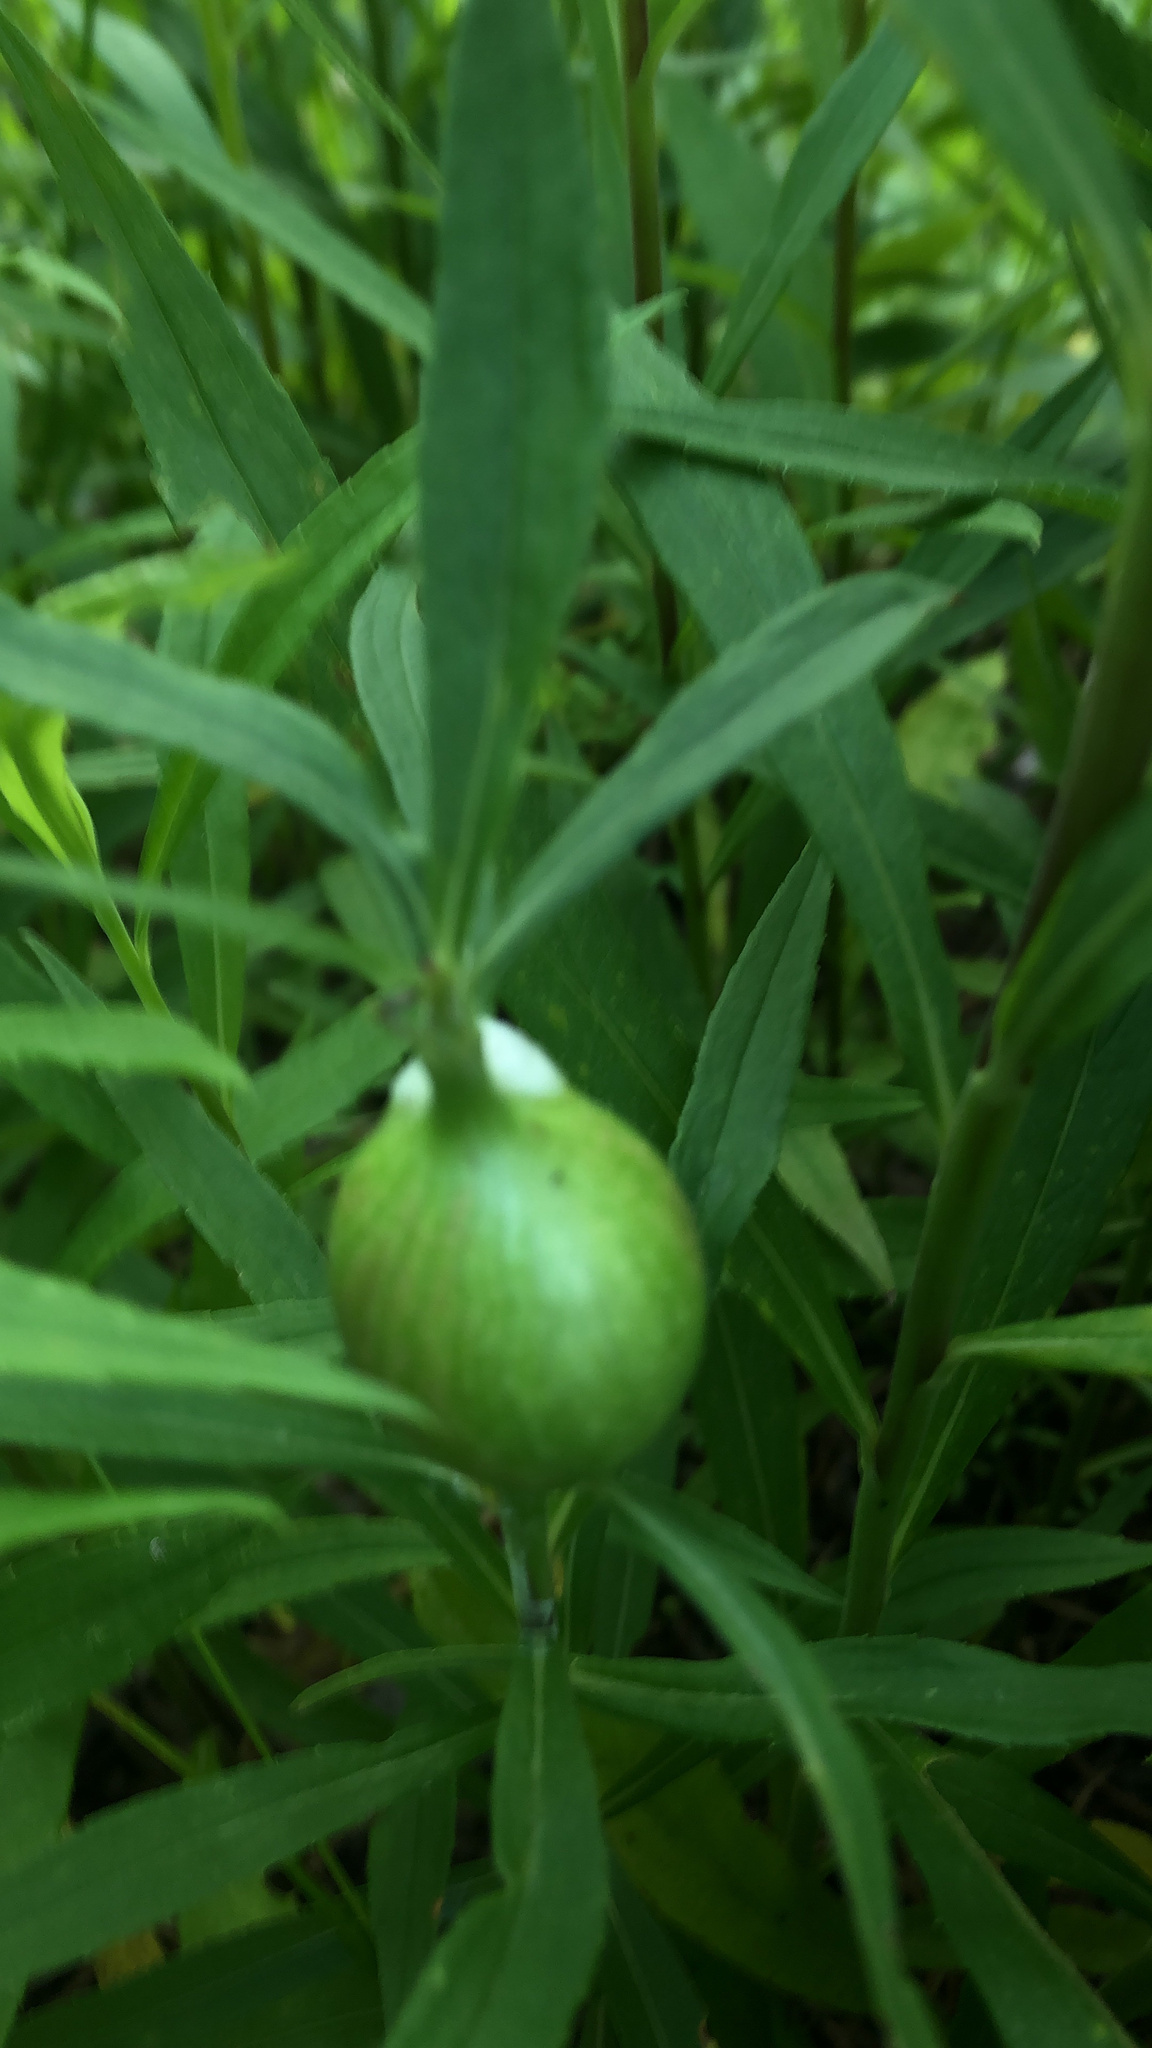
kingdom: Animalia
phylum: Arthropoda
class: Insecta
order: Diptera
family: Tephritidae
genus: Eurosta
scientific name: Eurosta solidaginis
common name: Goldenrod gall fly
